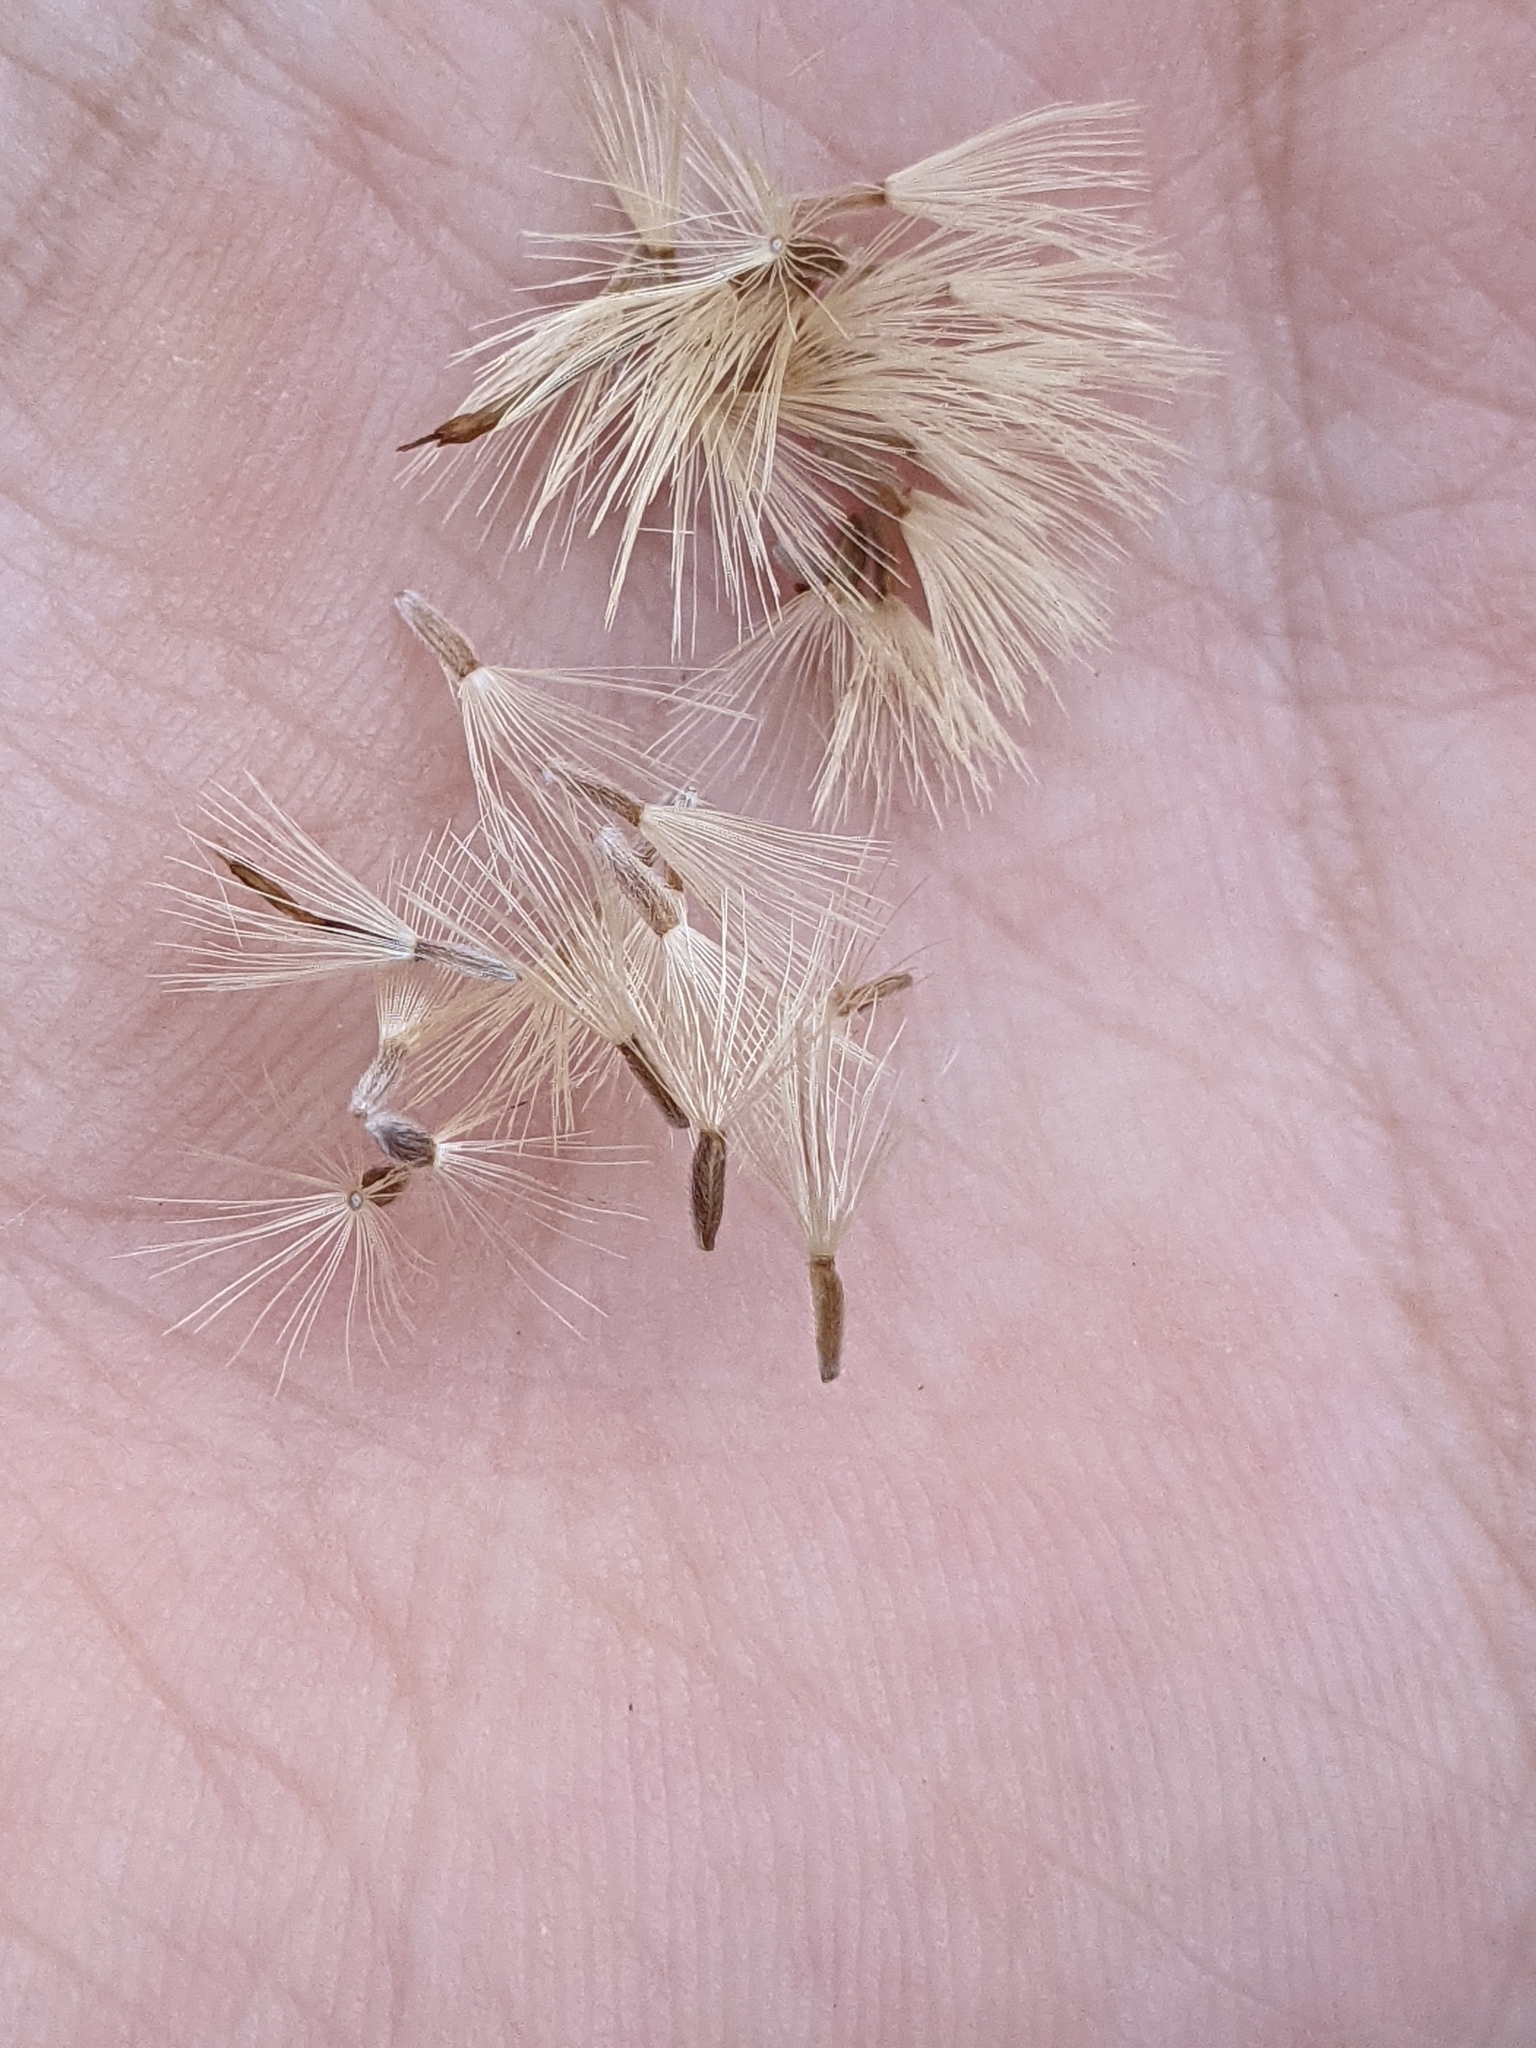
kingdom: Plantae
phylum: Tracheophyta
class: Magnoliopsida
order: Asterales
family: Asteraceae
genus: Heterotheca
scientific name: Heterotheca canescens
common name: Hoary golden-aster
